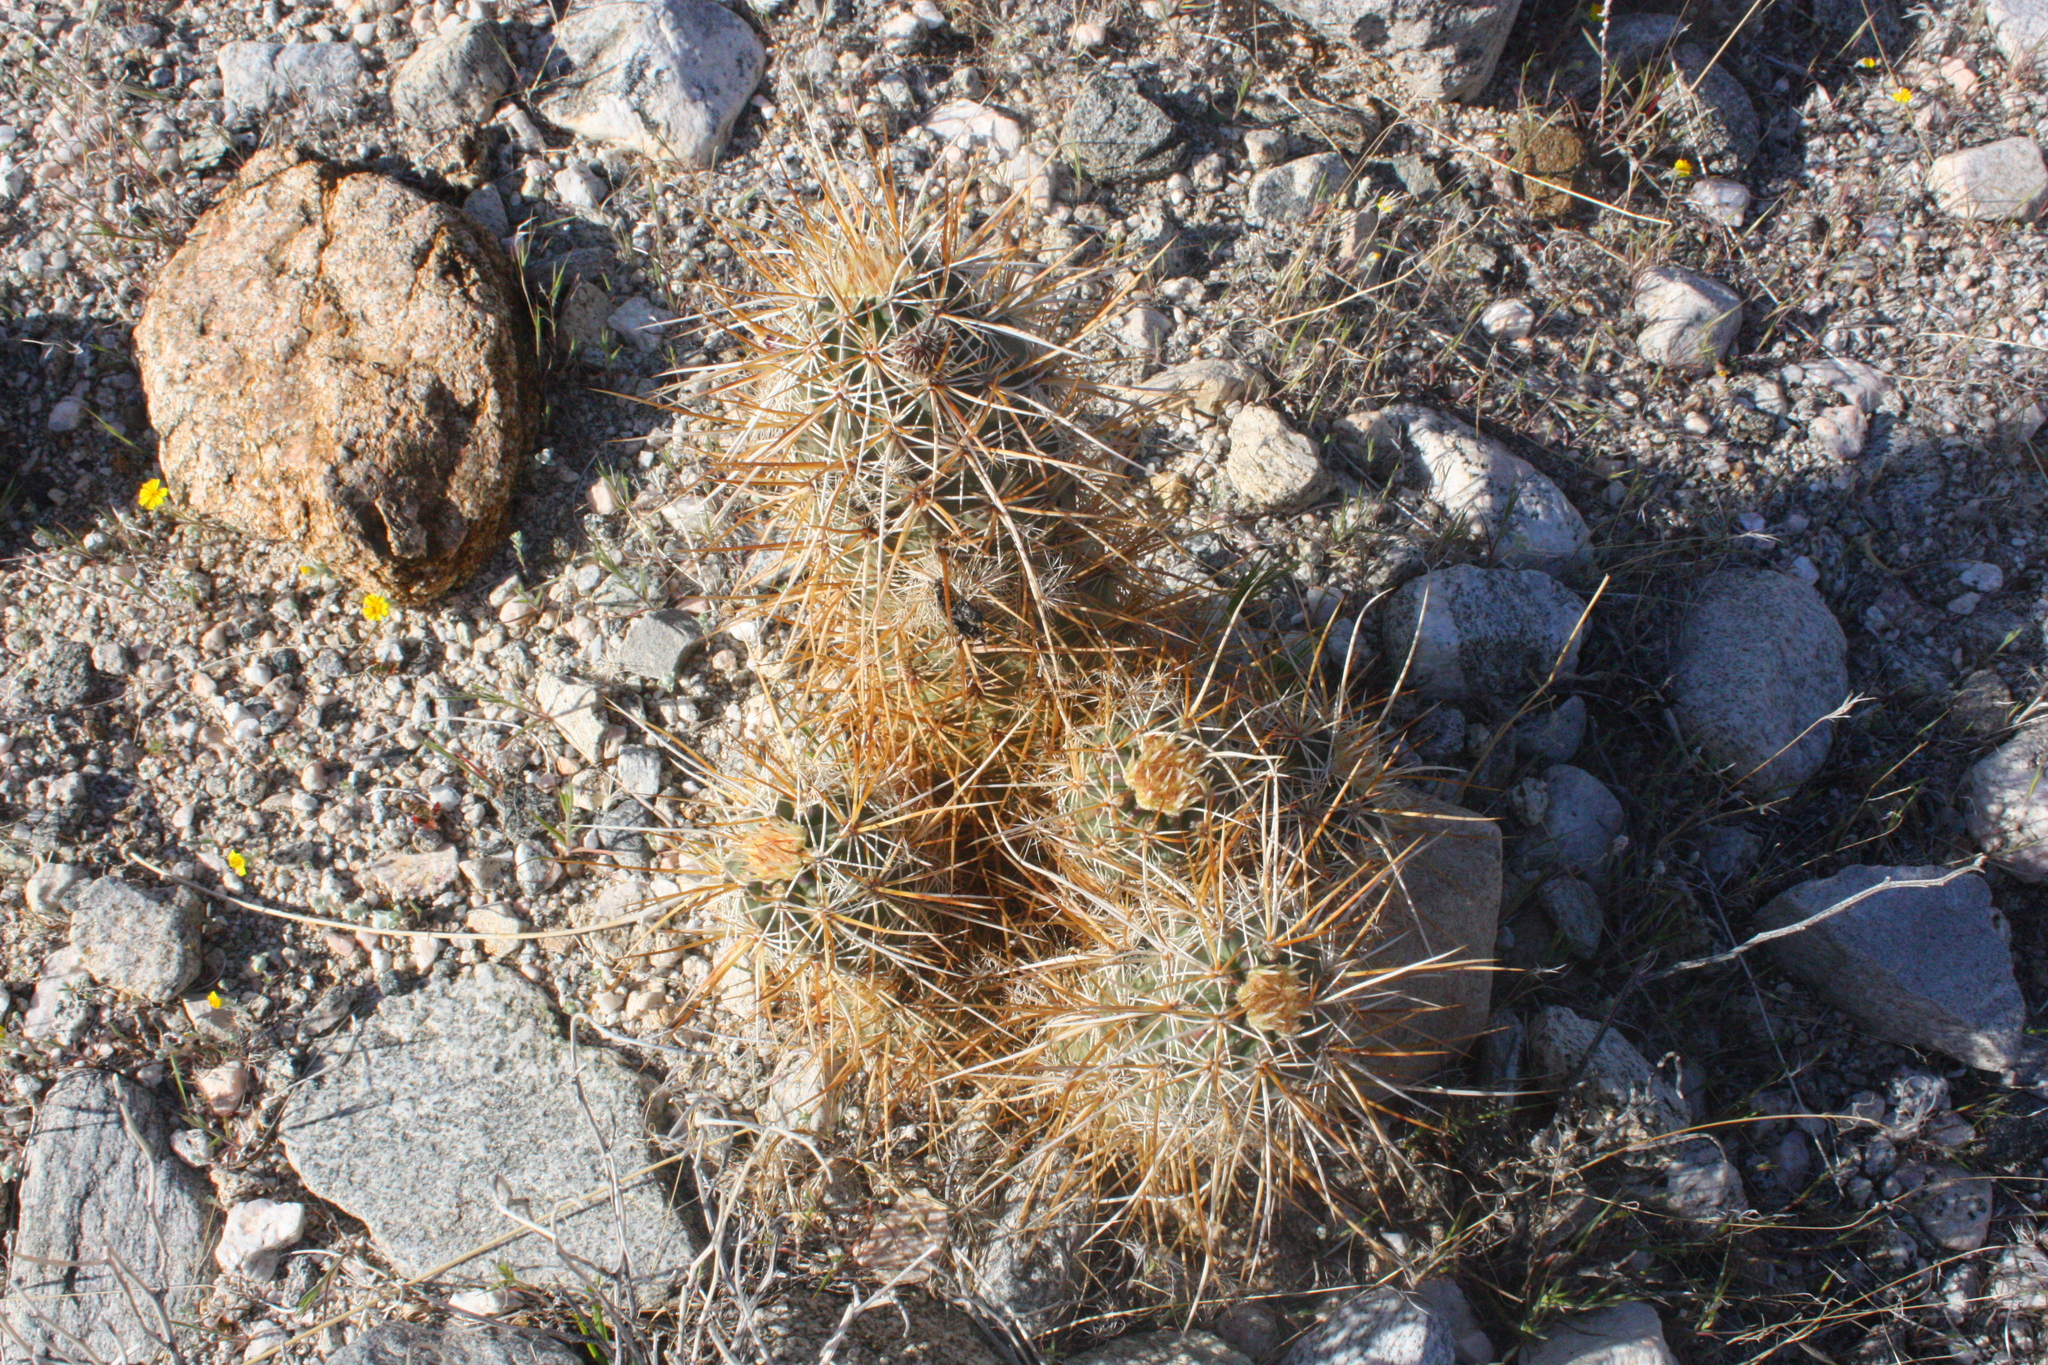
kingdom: Plantae
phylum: Tracheophyta
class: Magnoliopsida
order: Caryophyllales
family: Cactaceae
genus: Echinocereus
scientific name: Echinocereus engelmannii
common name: Engelmann's hedgehog cactus
